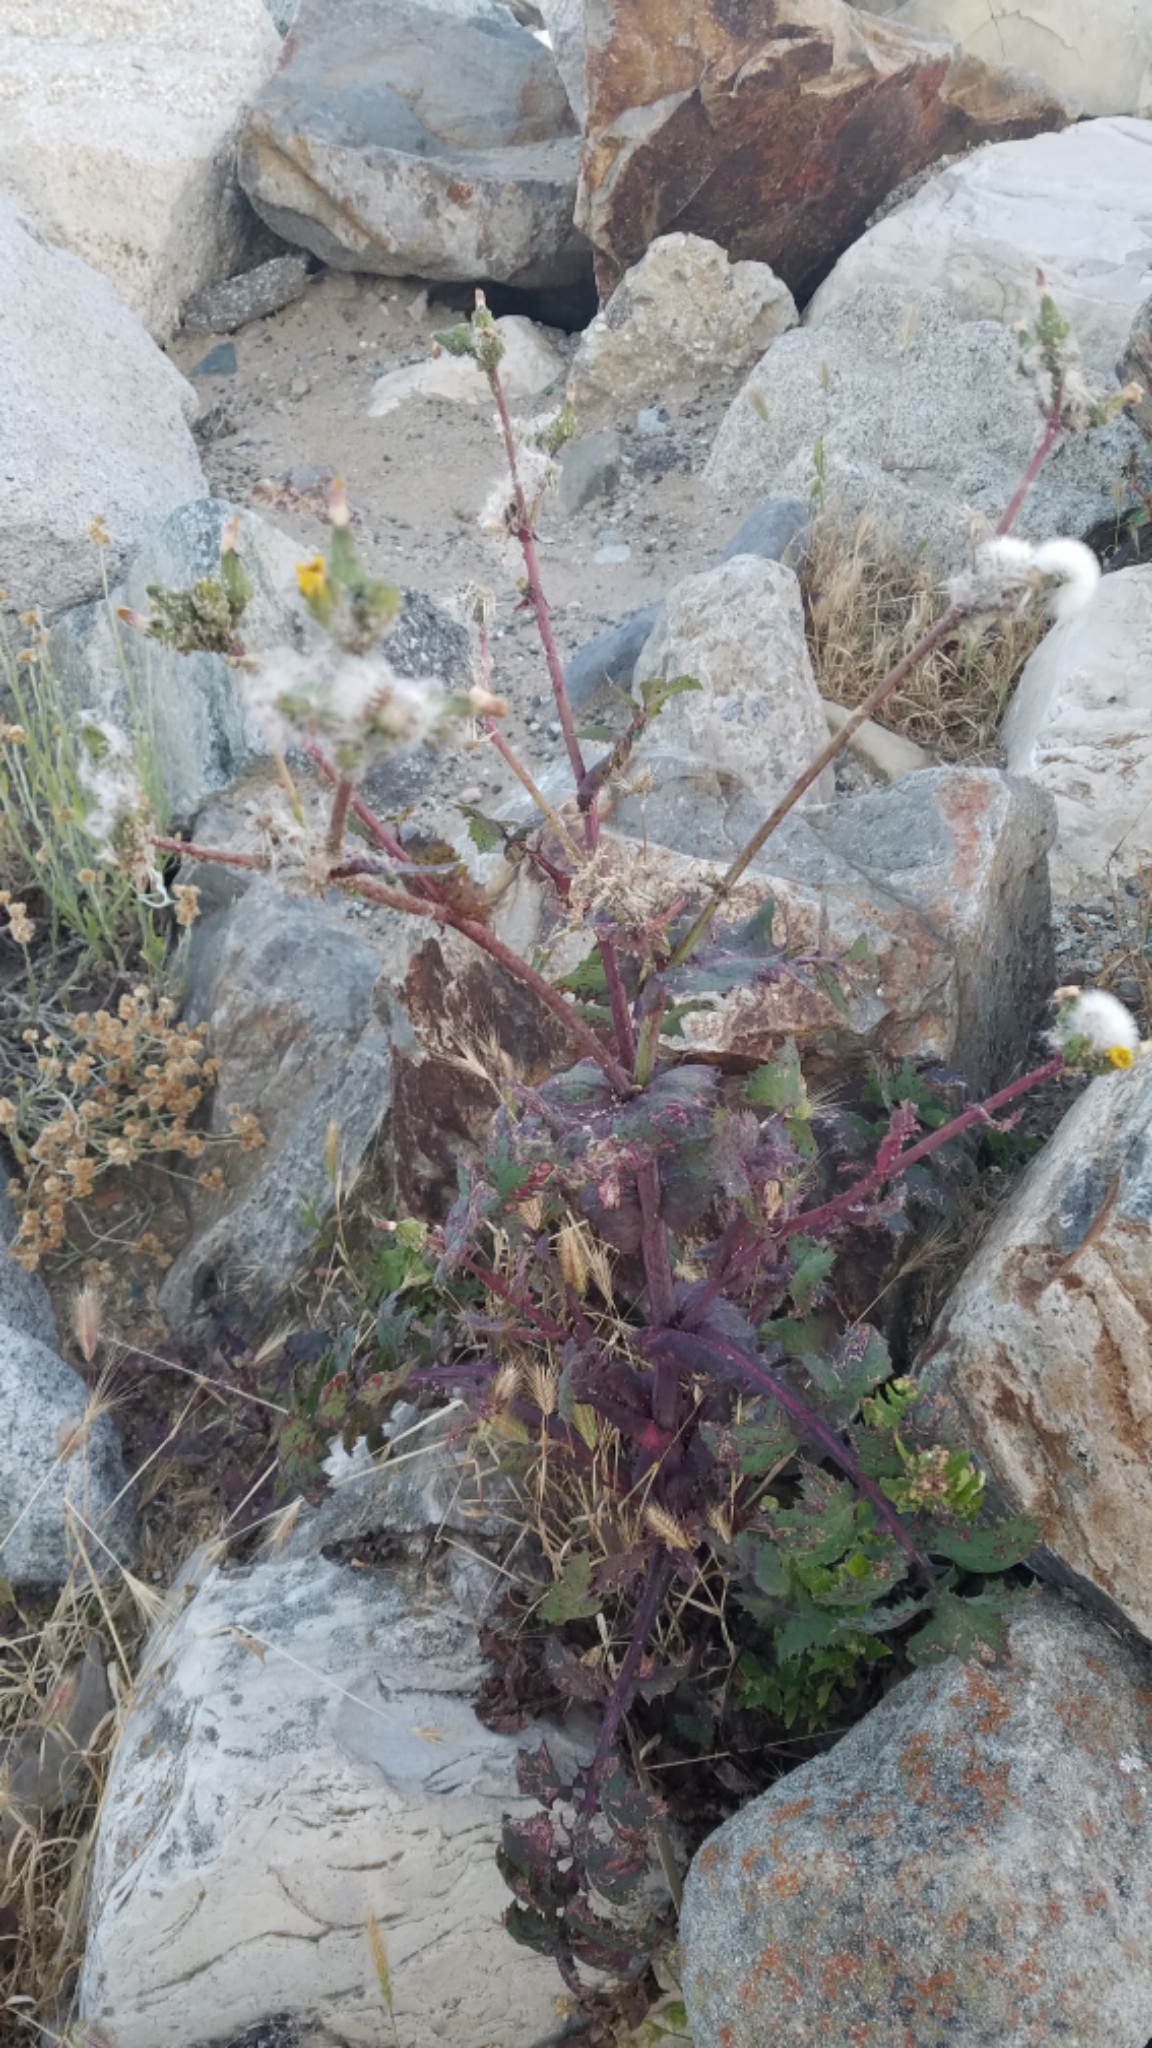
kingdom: Plantae
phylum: Tracheophyta
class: Magnoliopsida
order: Asterales
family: Asteraceae
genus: Sonchus
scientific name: Sonchus oleraceus
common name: Common sowthistle
